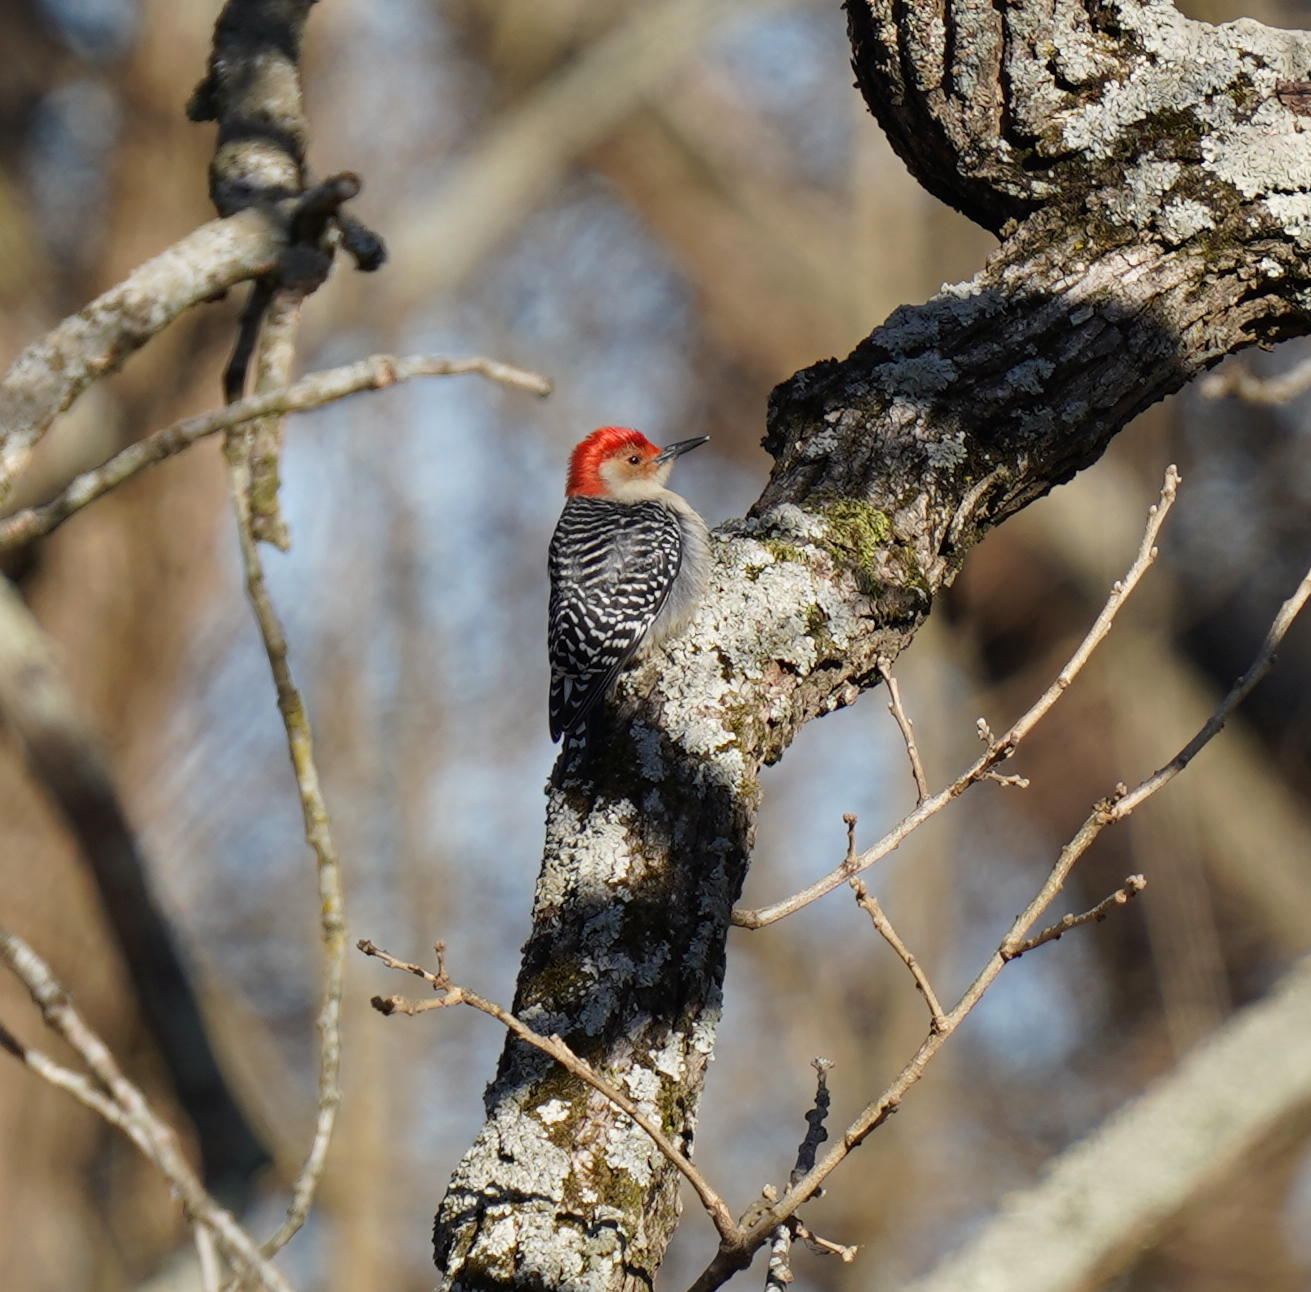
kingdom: Animalia
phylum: Chordata
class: Aves
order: Piciformes
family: Picidae
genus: Melanerpes
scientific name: Melanerpes carolinus
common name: Red-bellied woodpecker
